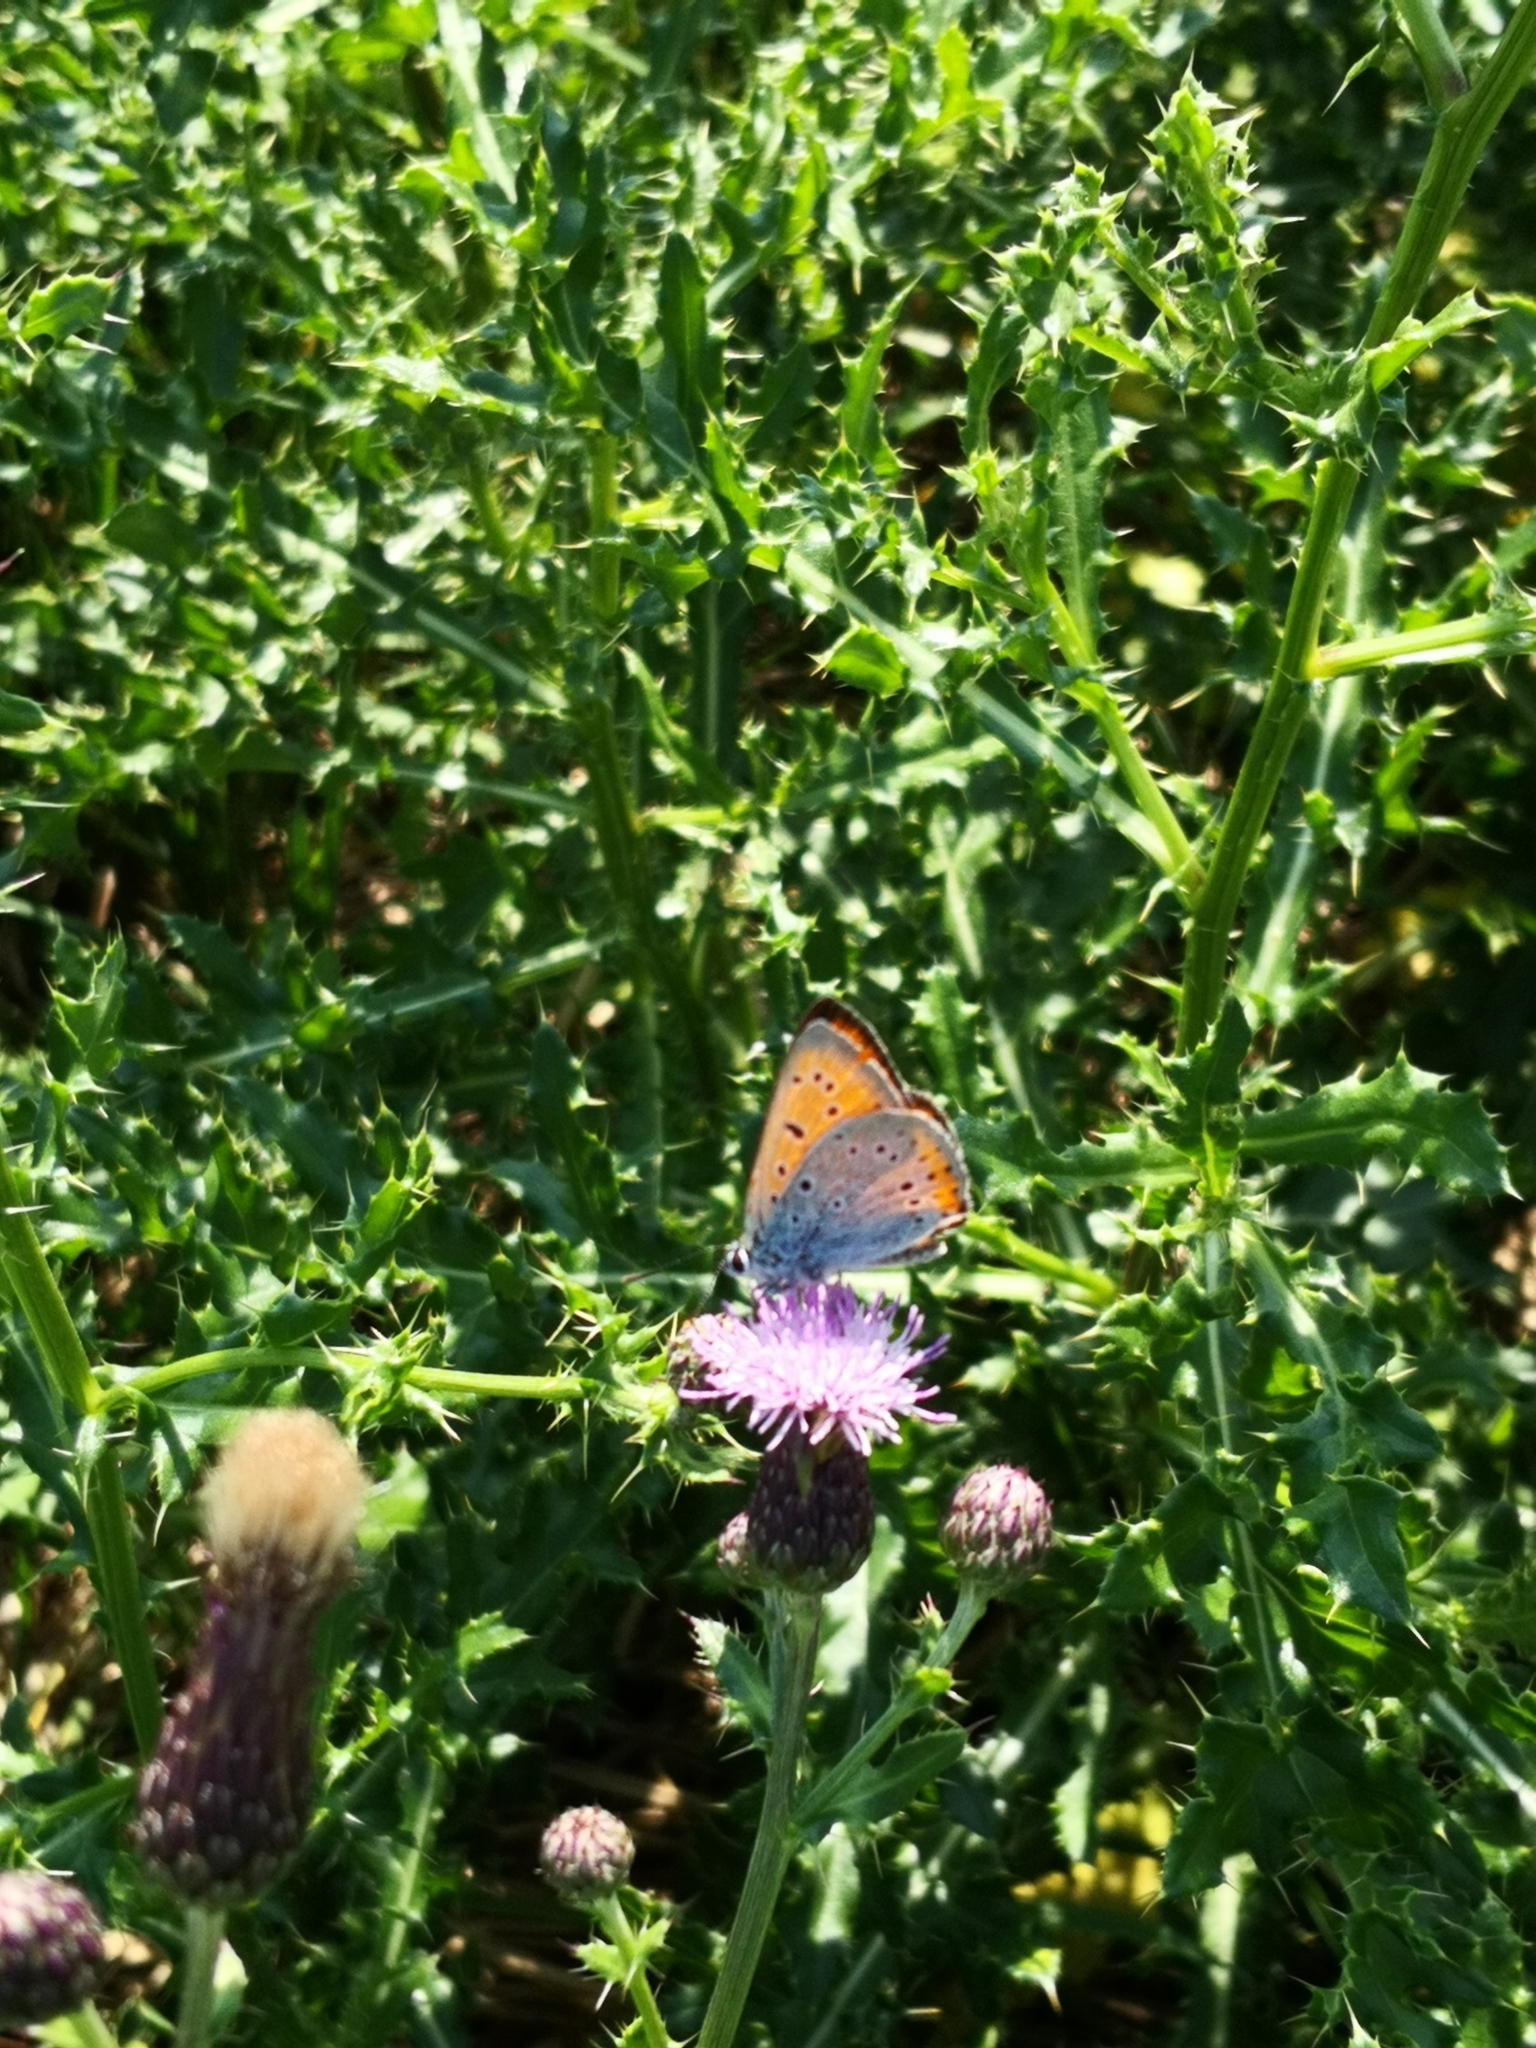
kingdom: Animalia
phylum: Arthropoda
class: Insecta
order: Lepidoptera
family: Lycaenidae
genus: Lycaena
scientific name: Lycaena dispar
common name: Large copper
